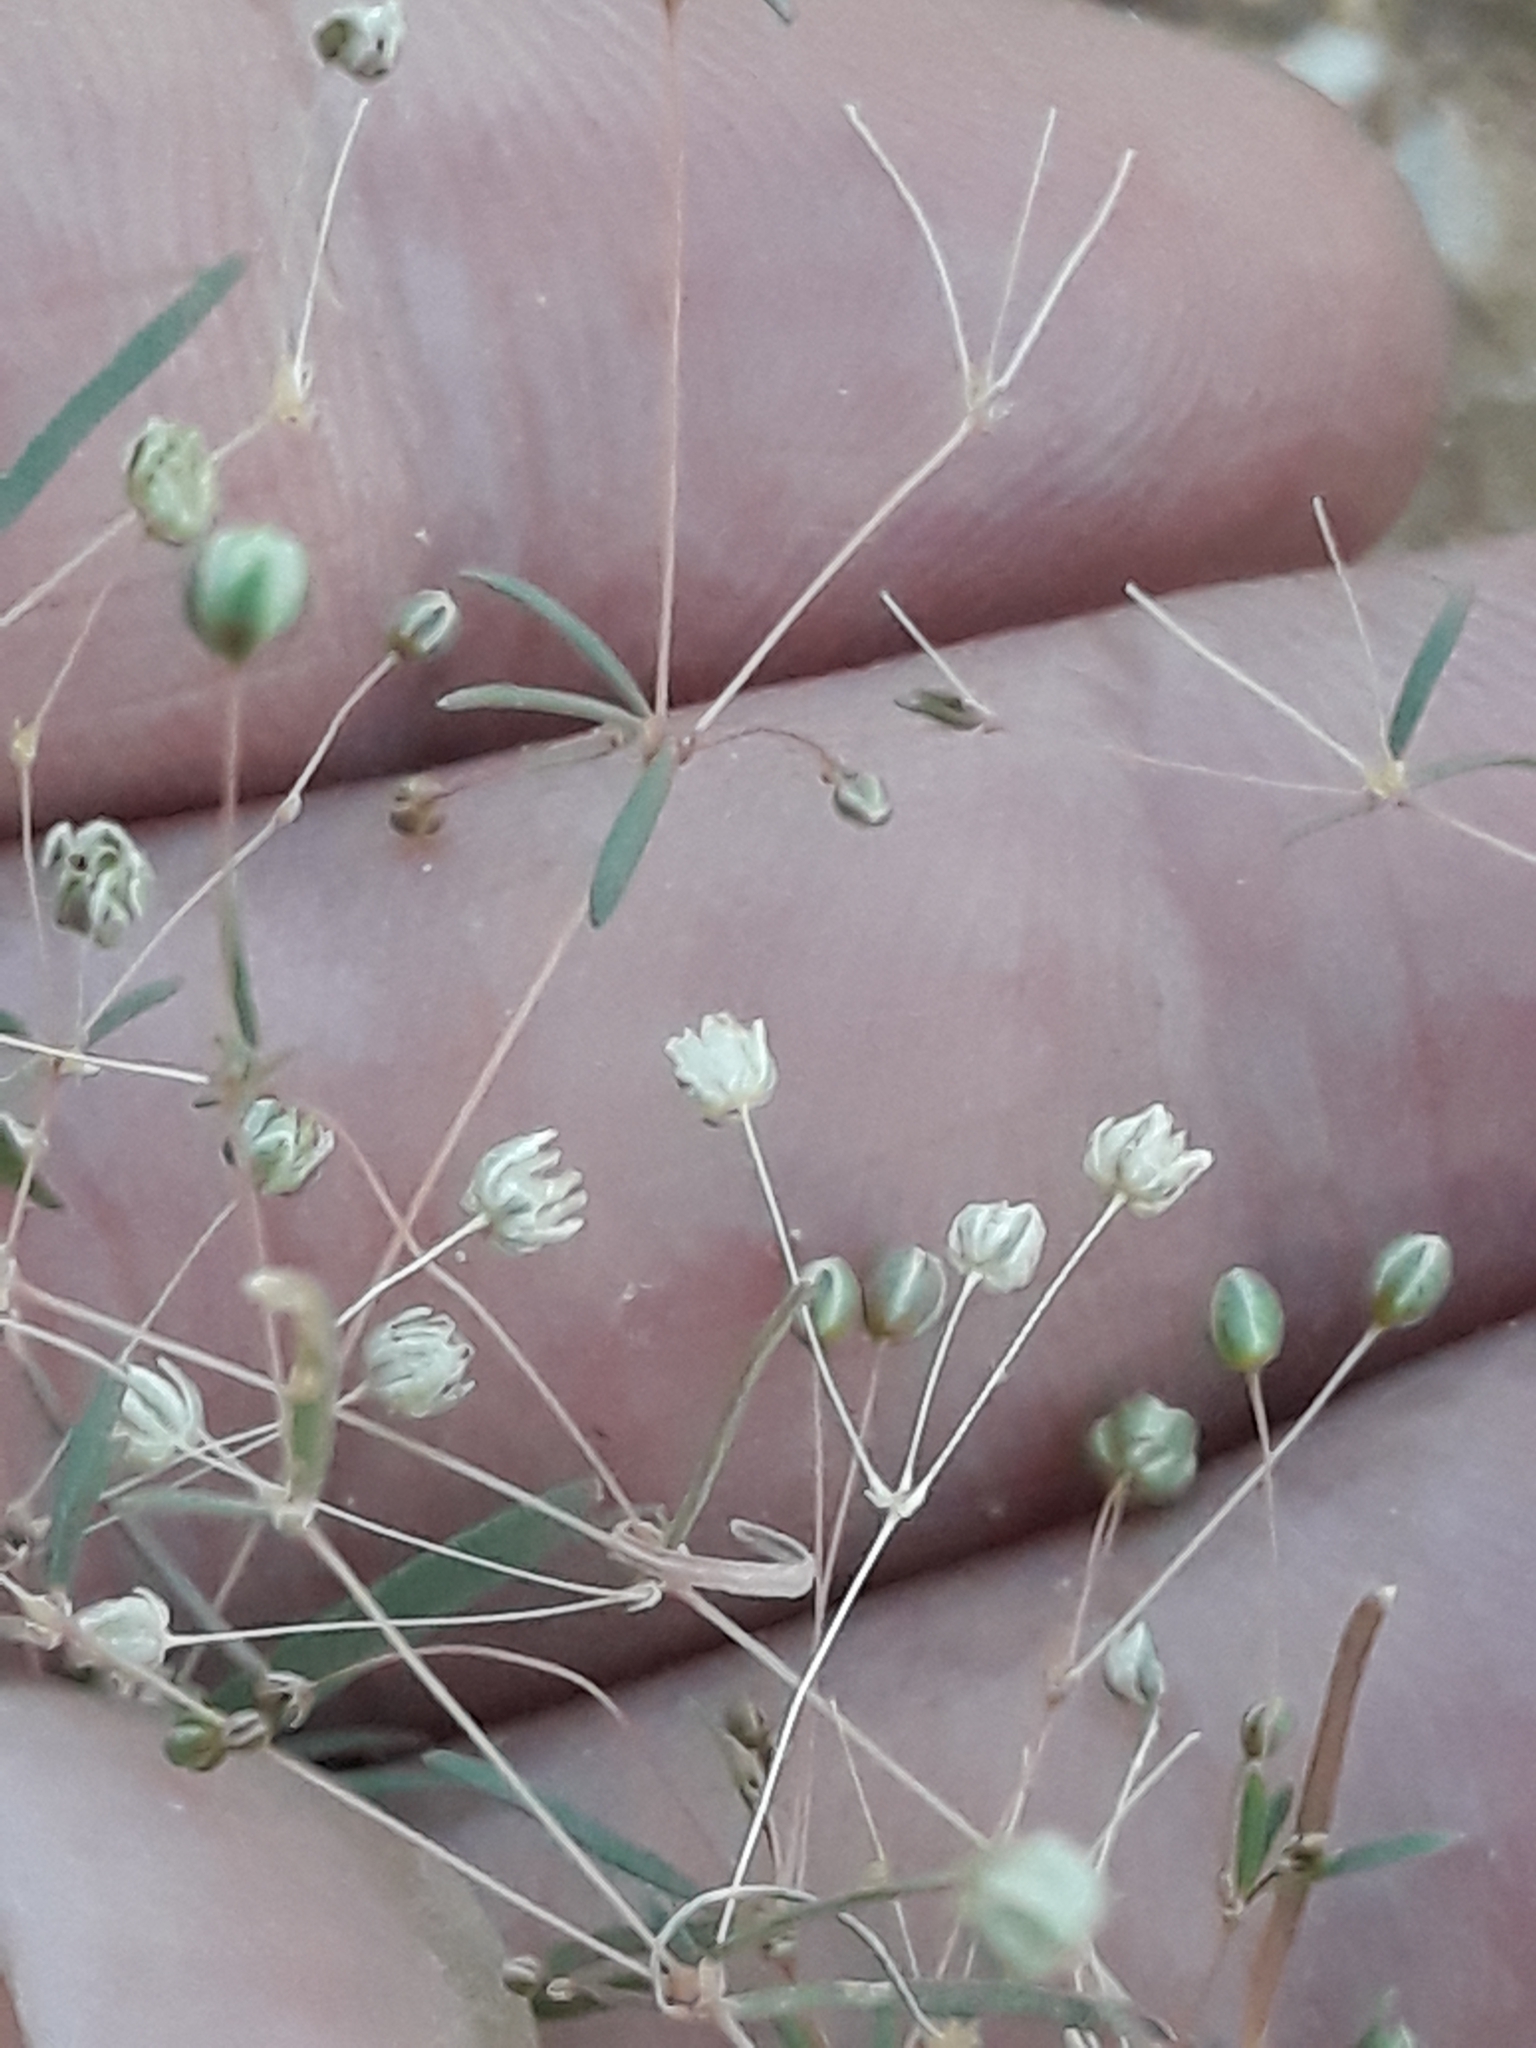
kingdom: Plantae
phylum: Tracheophyta
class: Magnoliopsida
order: Caryophyllales
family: Molluginaceae
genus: Hypertelis
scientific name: Hypertelis cerviana
